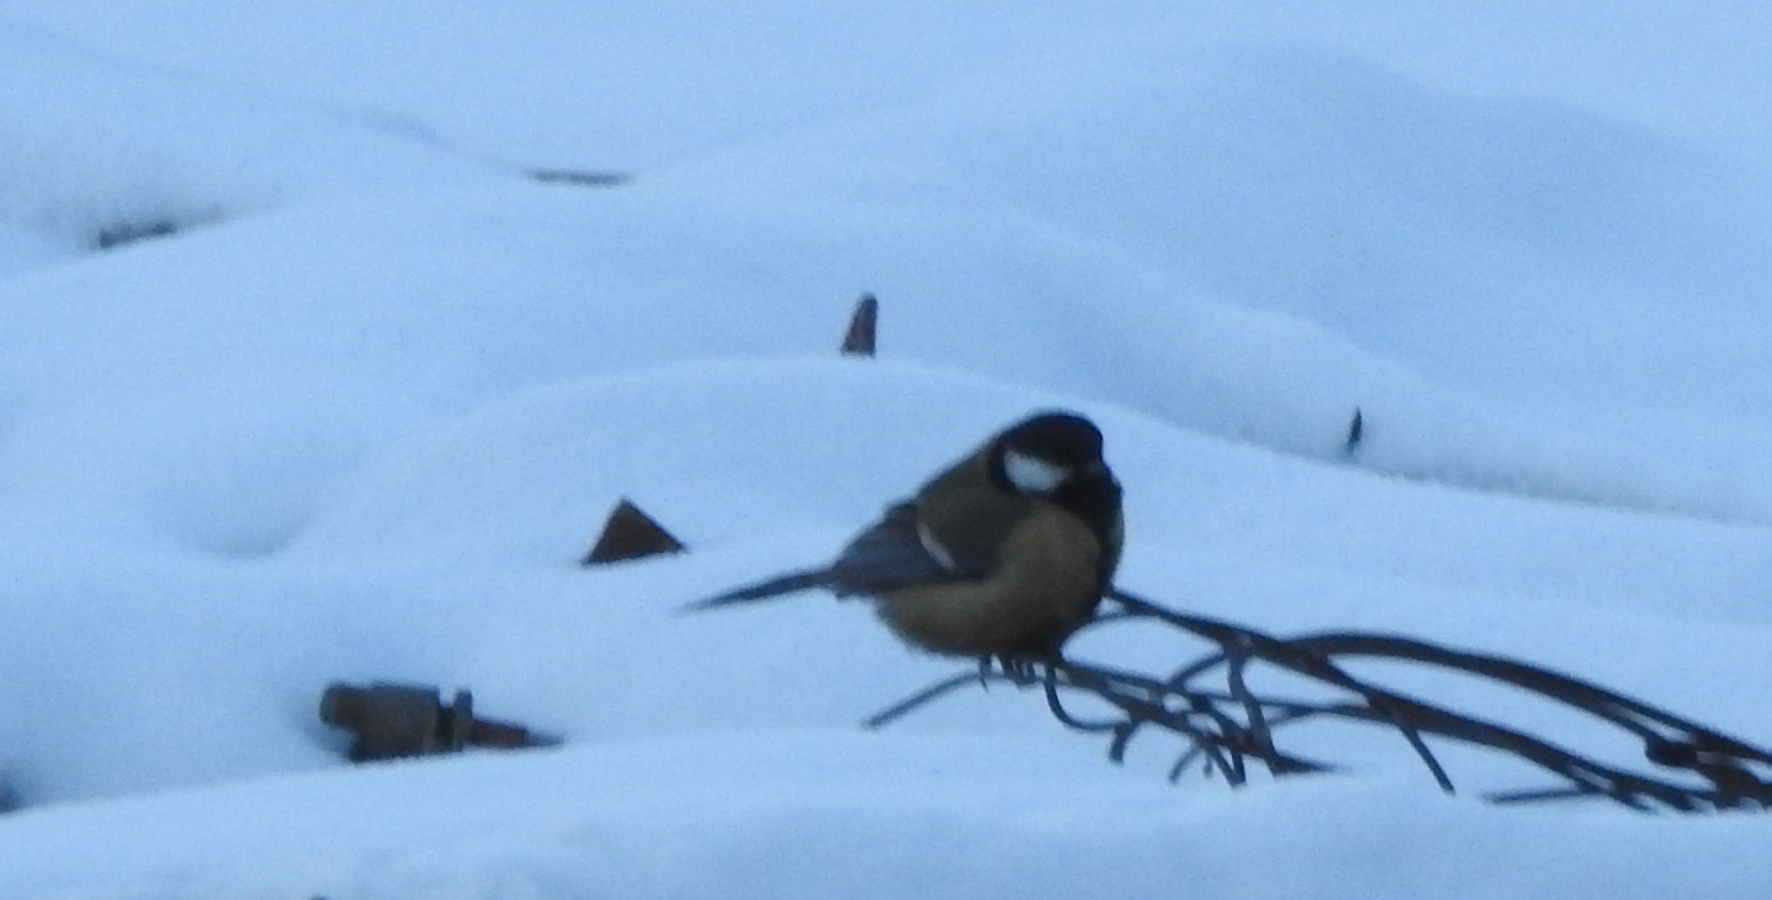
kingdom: Animalia
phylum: Chordata
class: Aves
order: Passeriformes
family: Paridae
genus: Parus
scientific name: Parus major
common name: Great tit
